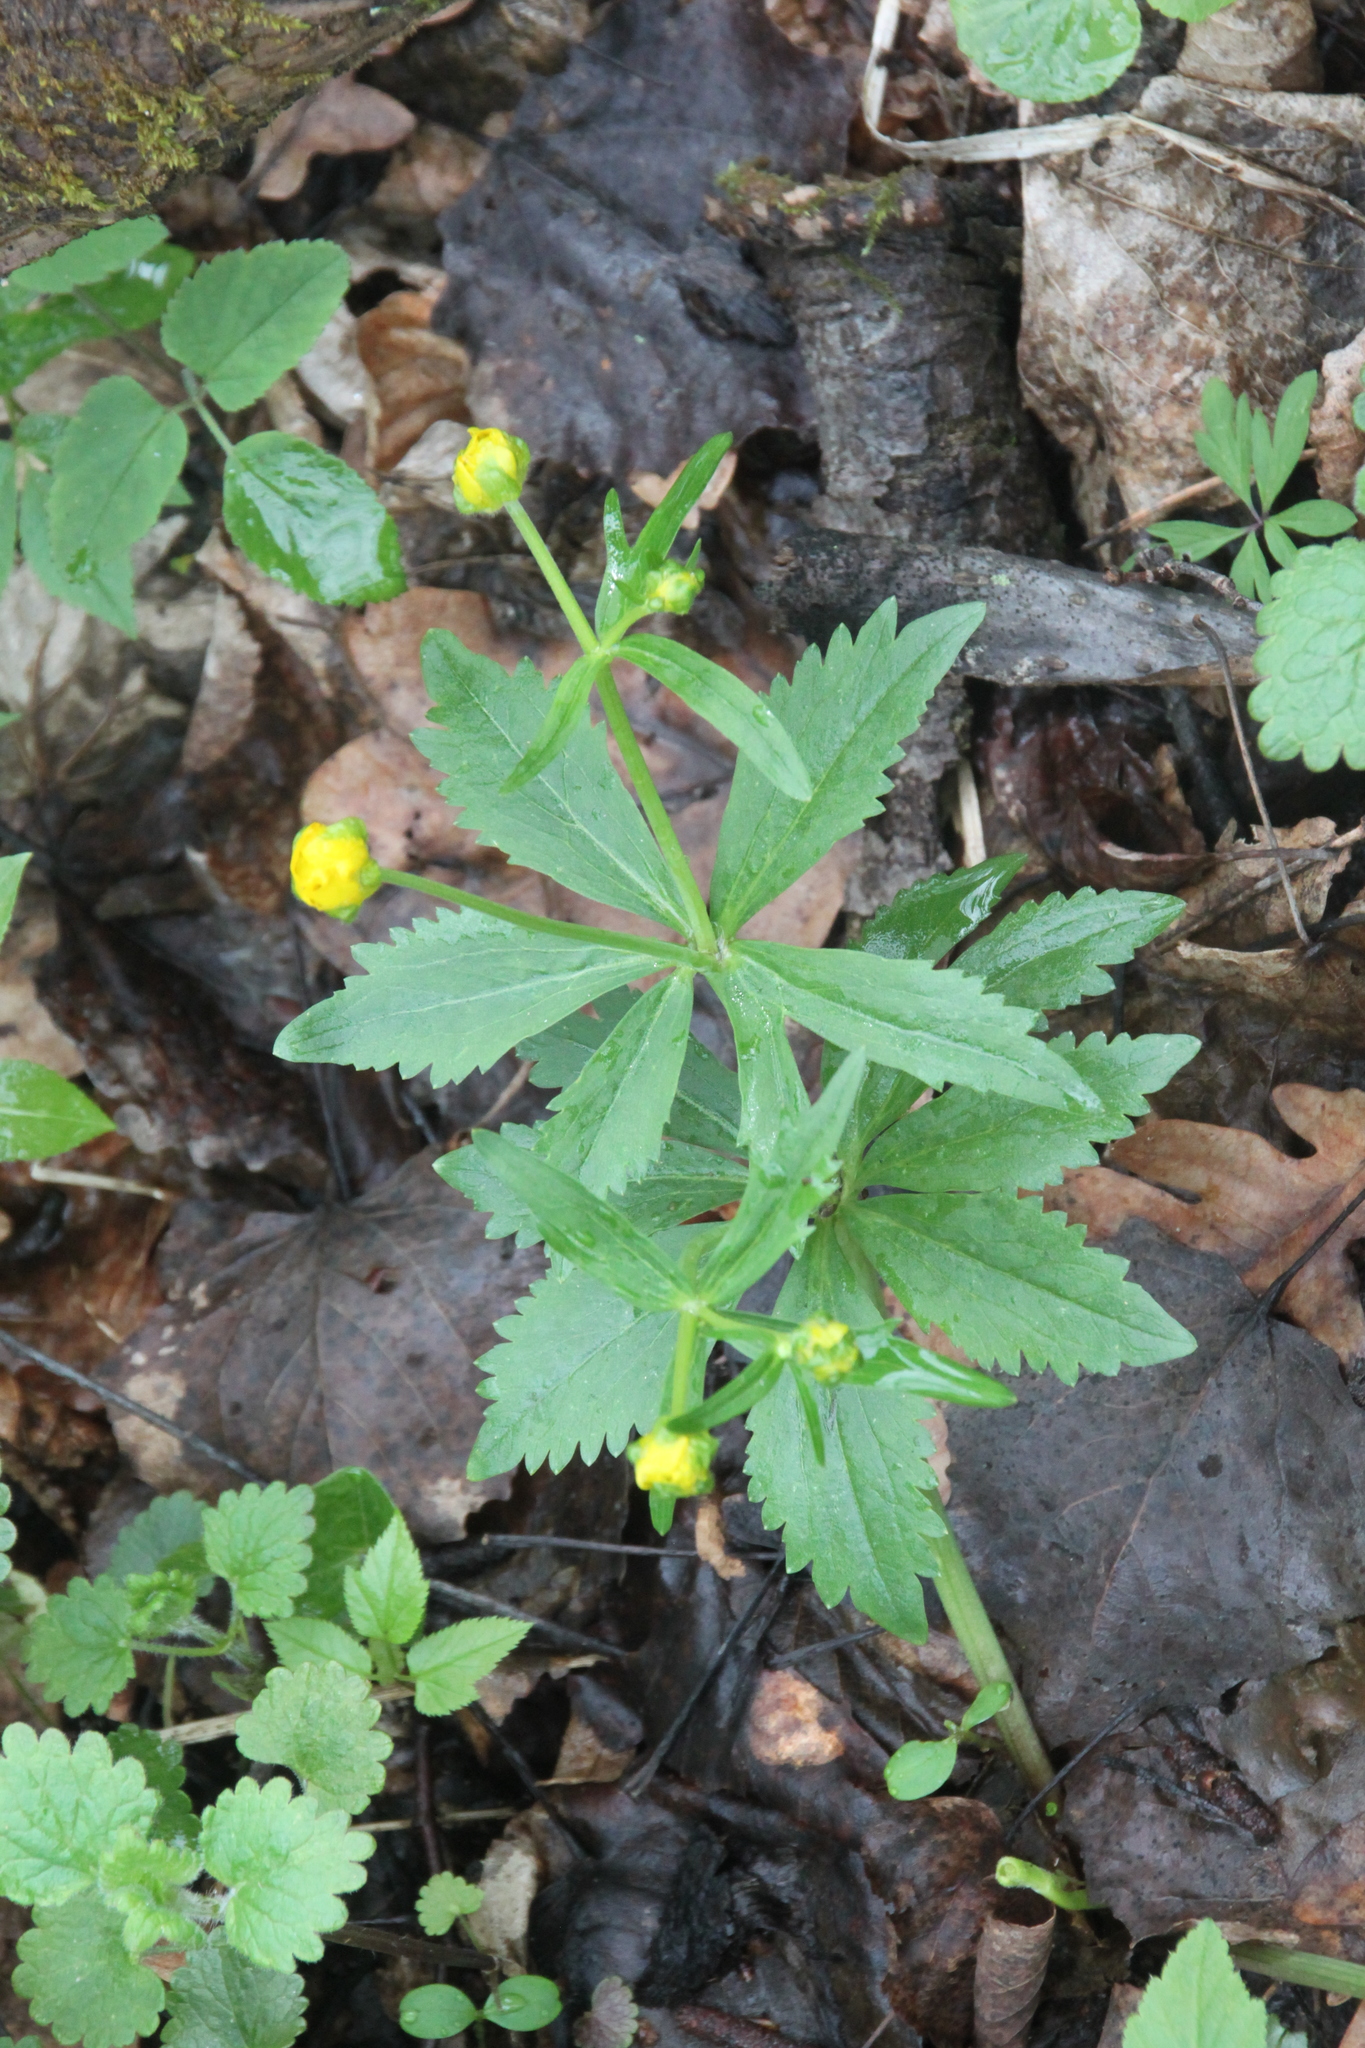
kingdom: Plantae
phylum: Tracheophyta
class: Magnoliopsida
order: Ranunculales
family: Ranunculaceae
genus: Ranunculus
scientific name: Ranunculus cassubicus
